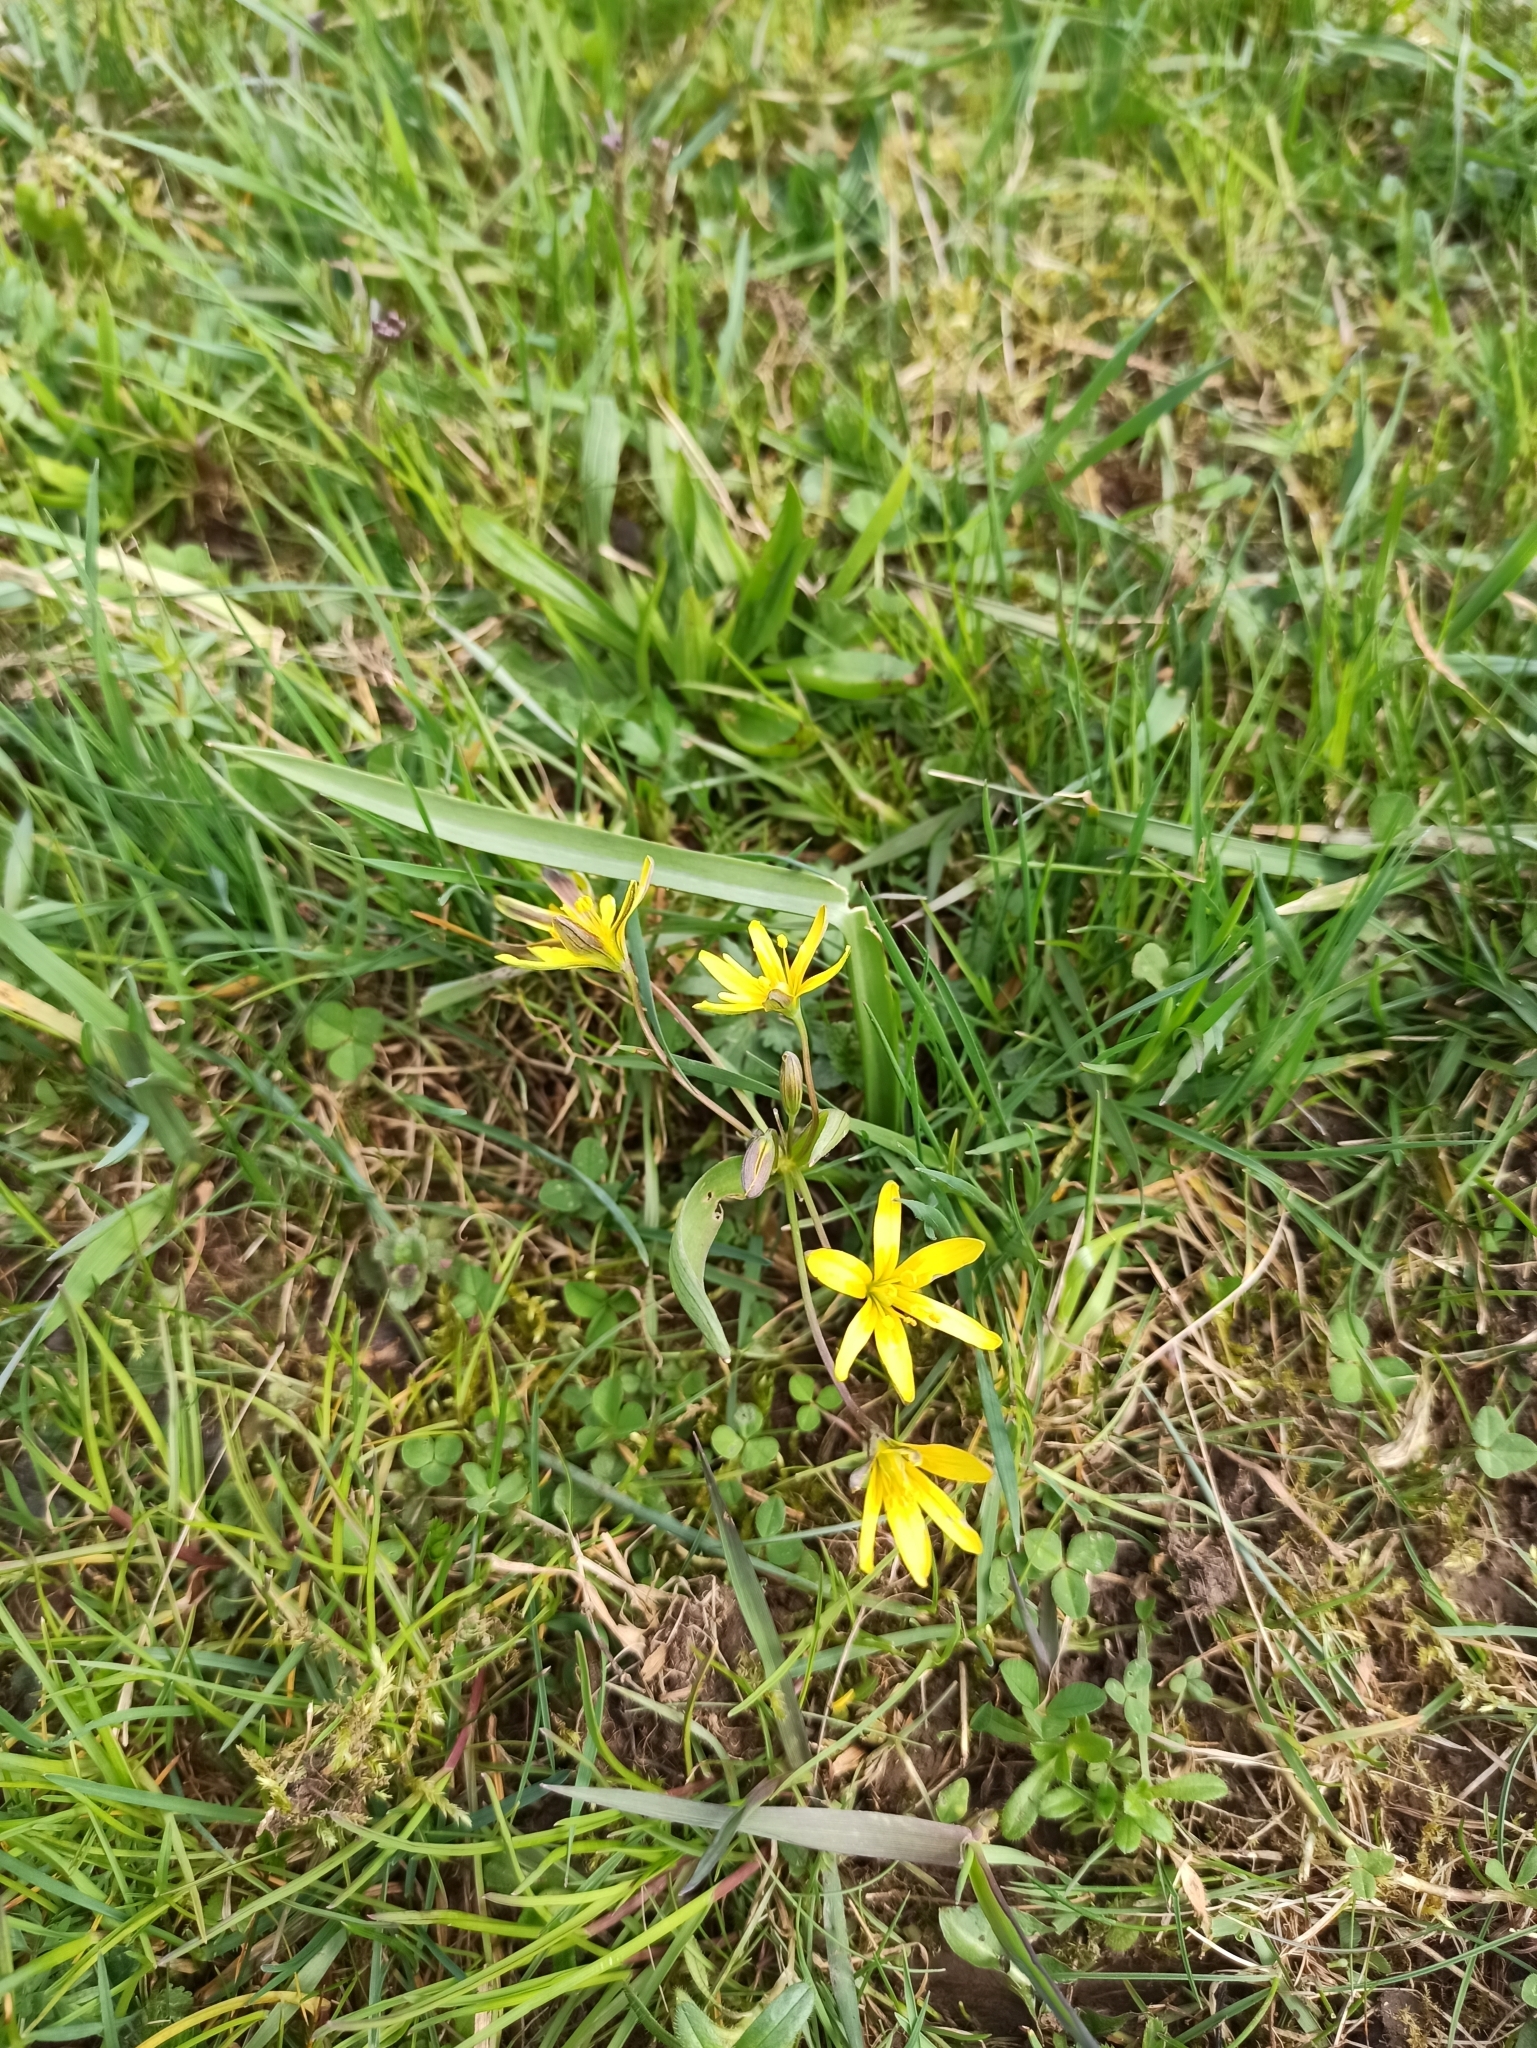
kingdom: Plantae
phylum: Tracheophyta
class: Liliopsida
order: Liliales
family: Liliaceae
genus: Gagea
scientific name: Gagea lutea
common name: Yellow star-of-bethlehem
